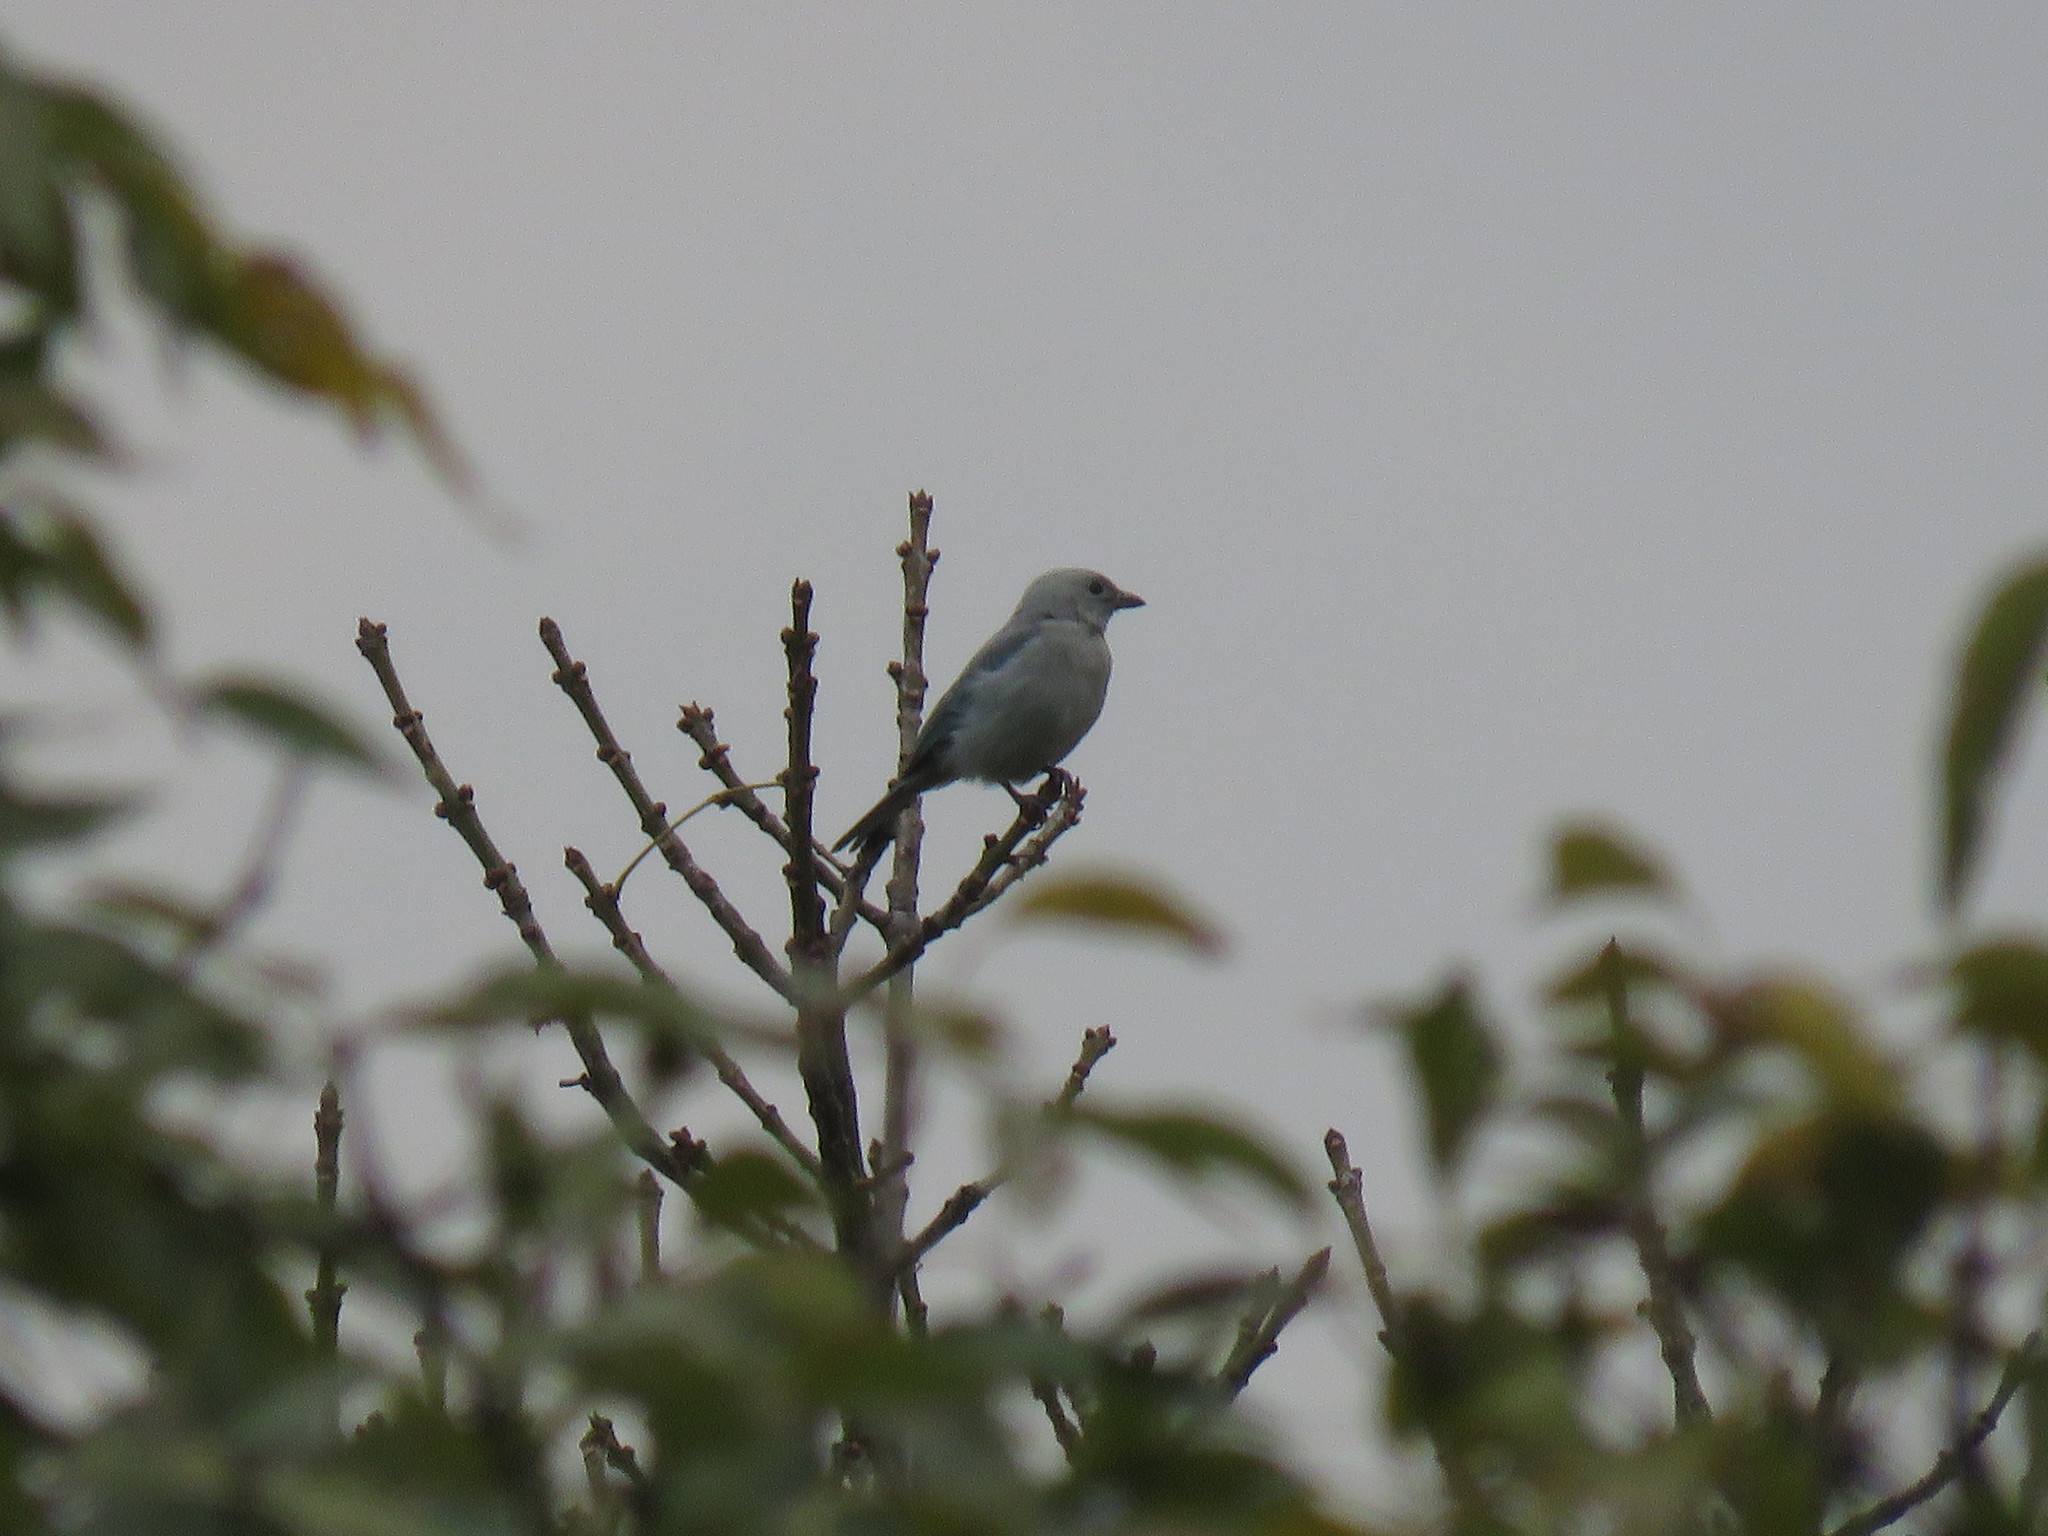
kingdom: Animalia
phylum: Chordata
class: Aves
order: Passeriformes
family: Thraupidae
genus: Thraupis
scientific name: Thraupis episcopus
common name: Blue-grey tanager
